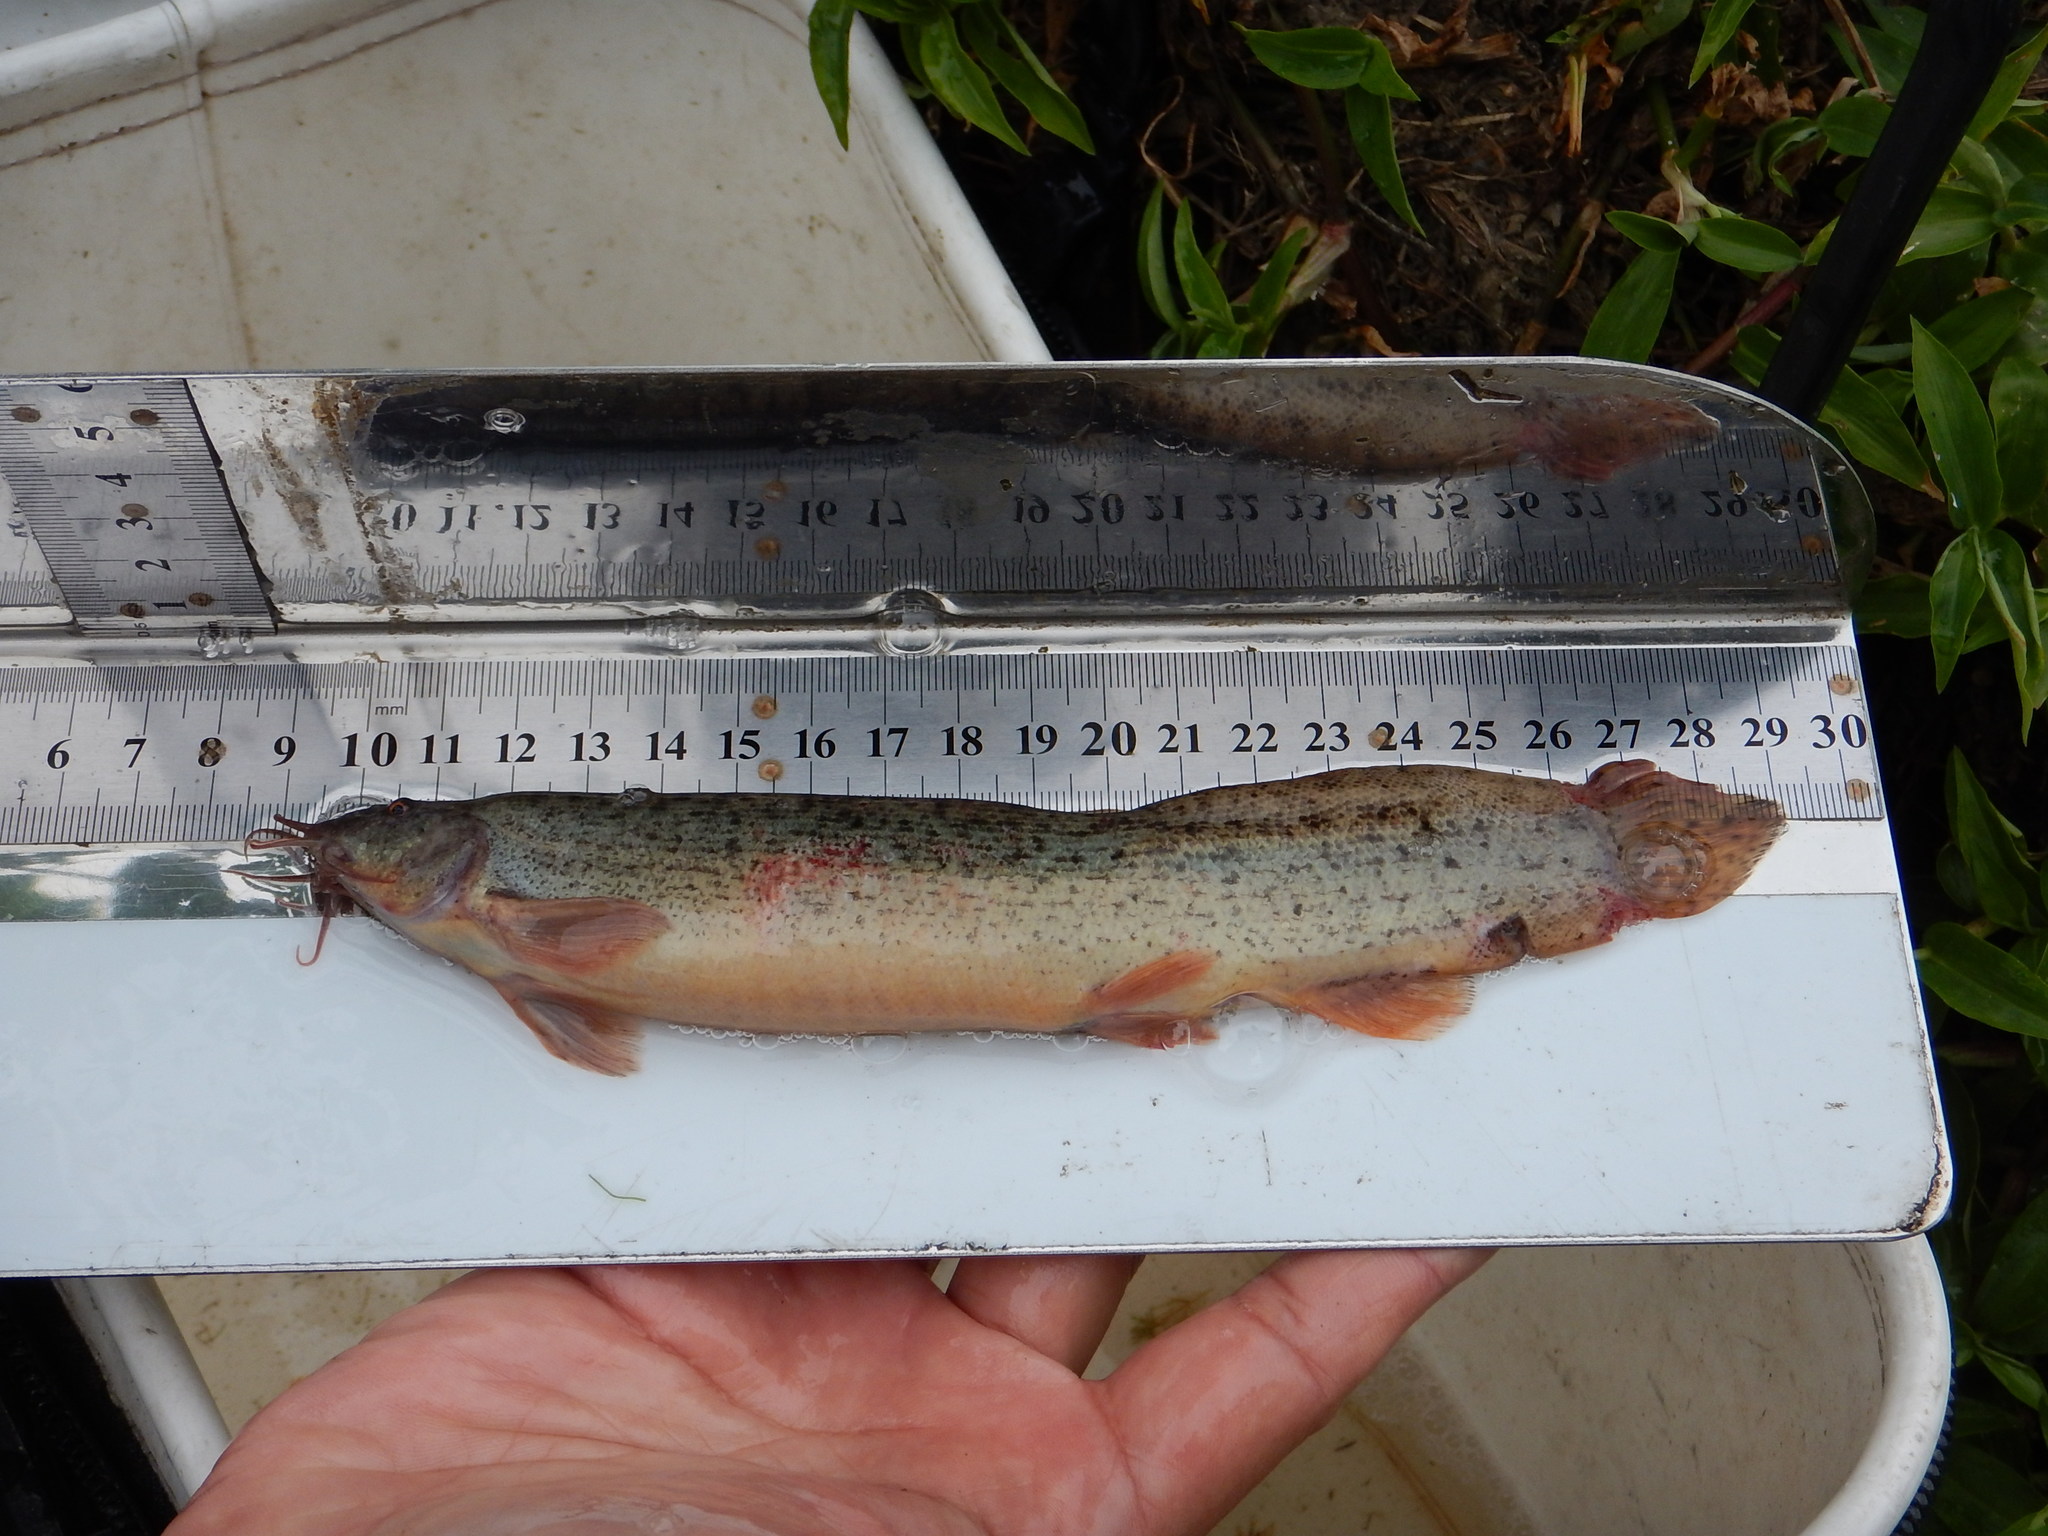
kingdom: Animalia
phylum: Chordata
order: Cypriniformes
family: Cobitidae
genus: Paramisgurnus
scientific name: Paramisgurnus dabryanus
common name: Large scale loach
